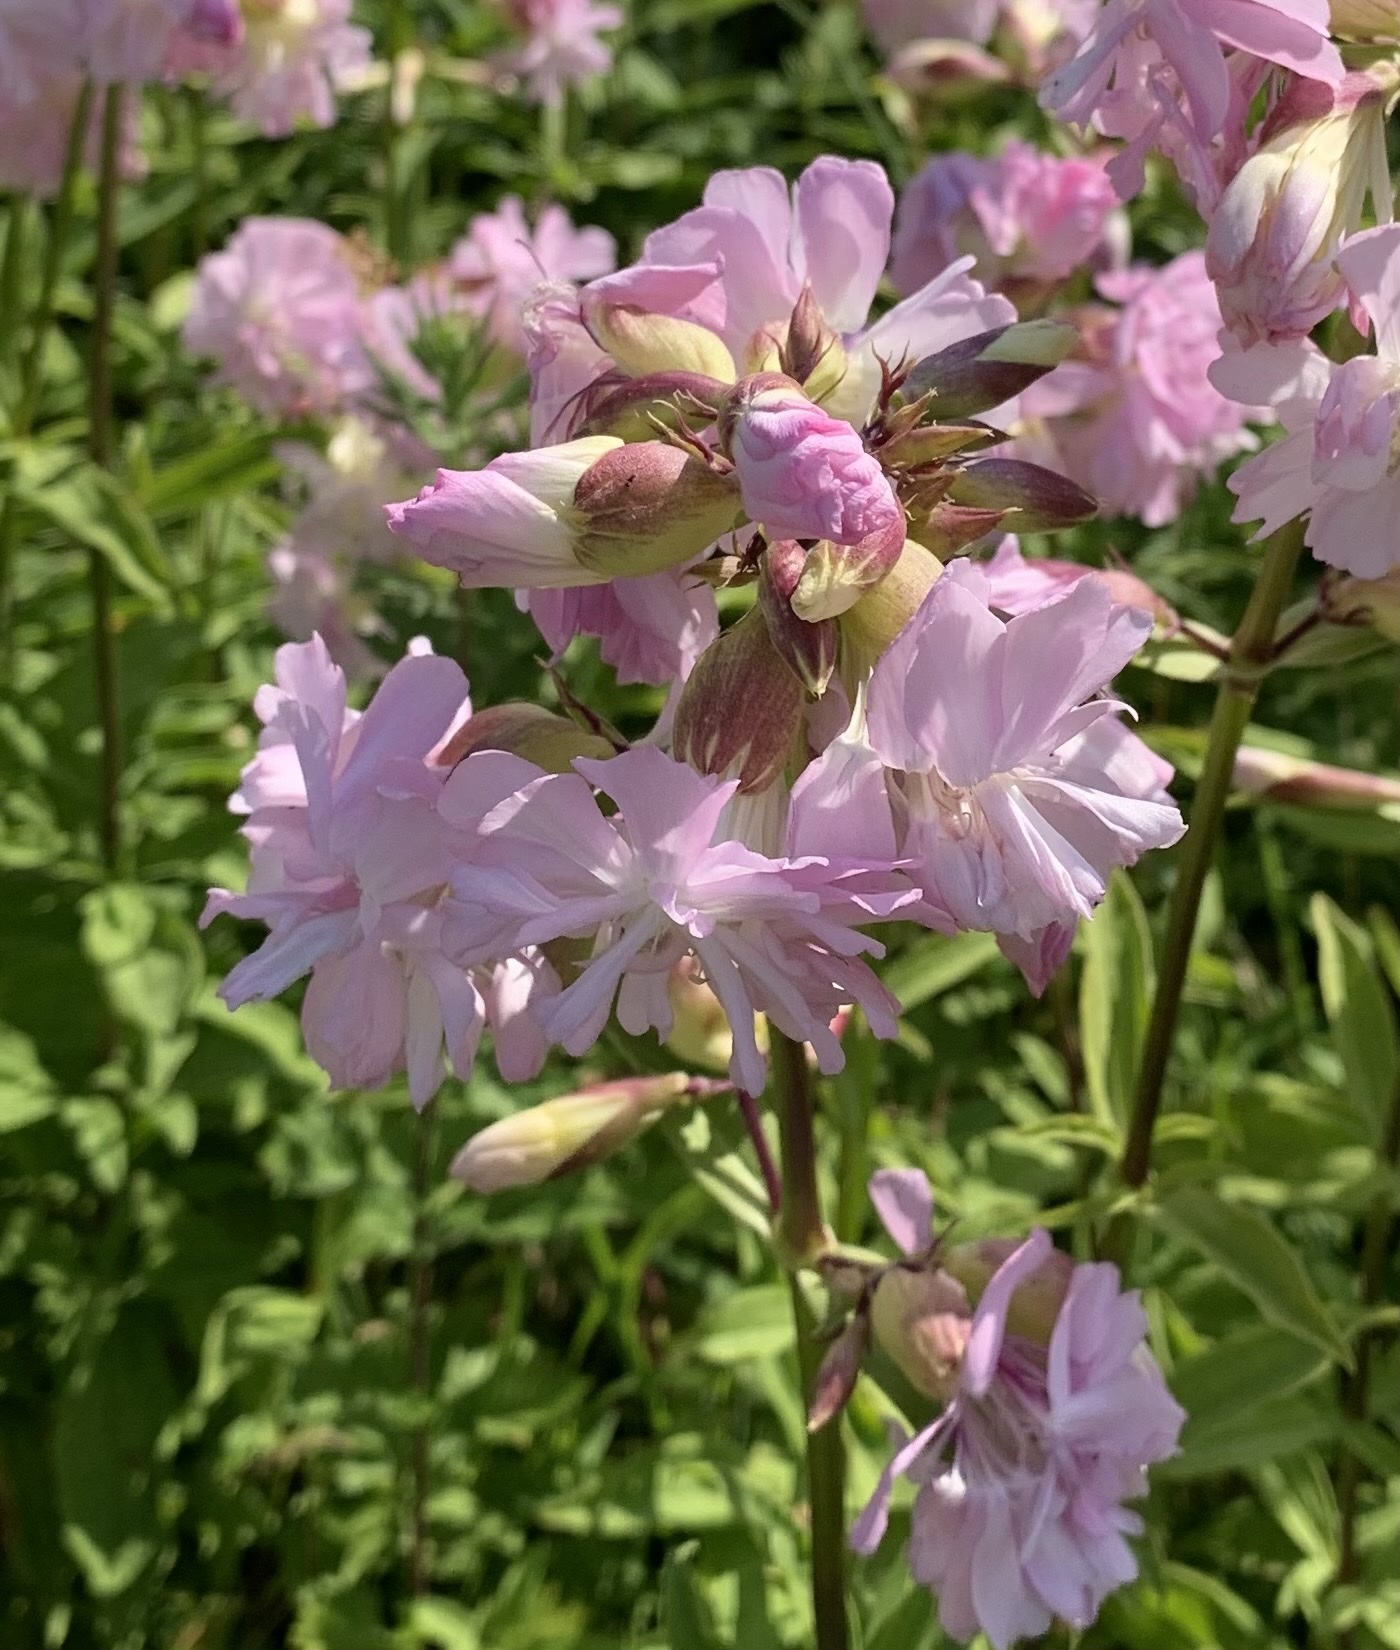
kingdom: Plantae
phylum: Tracheophyta
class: Magnoliopsida
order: Caryophyllales
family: Caryophyllaceae
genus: Saponaria
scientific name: Saponaria officinalis
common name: Soapwort
